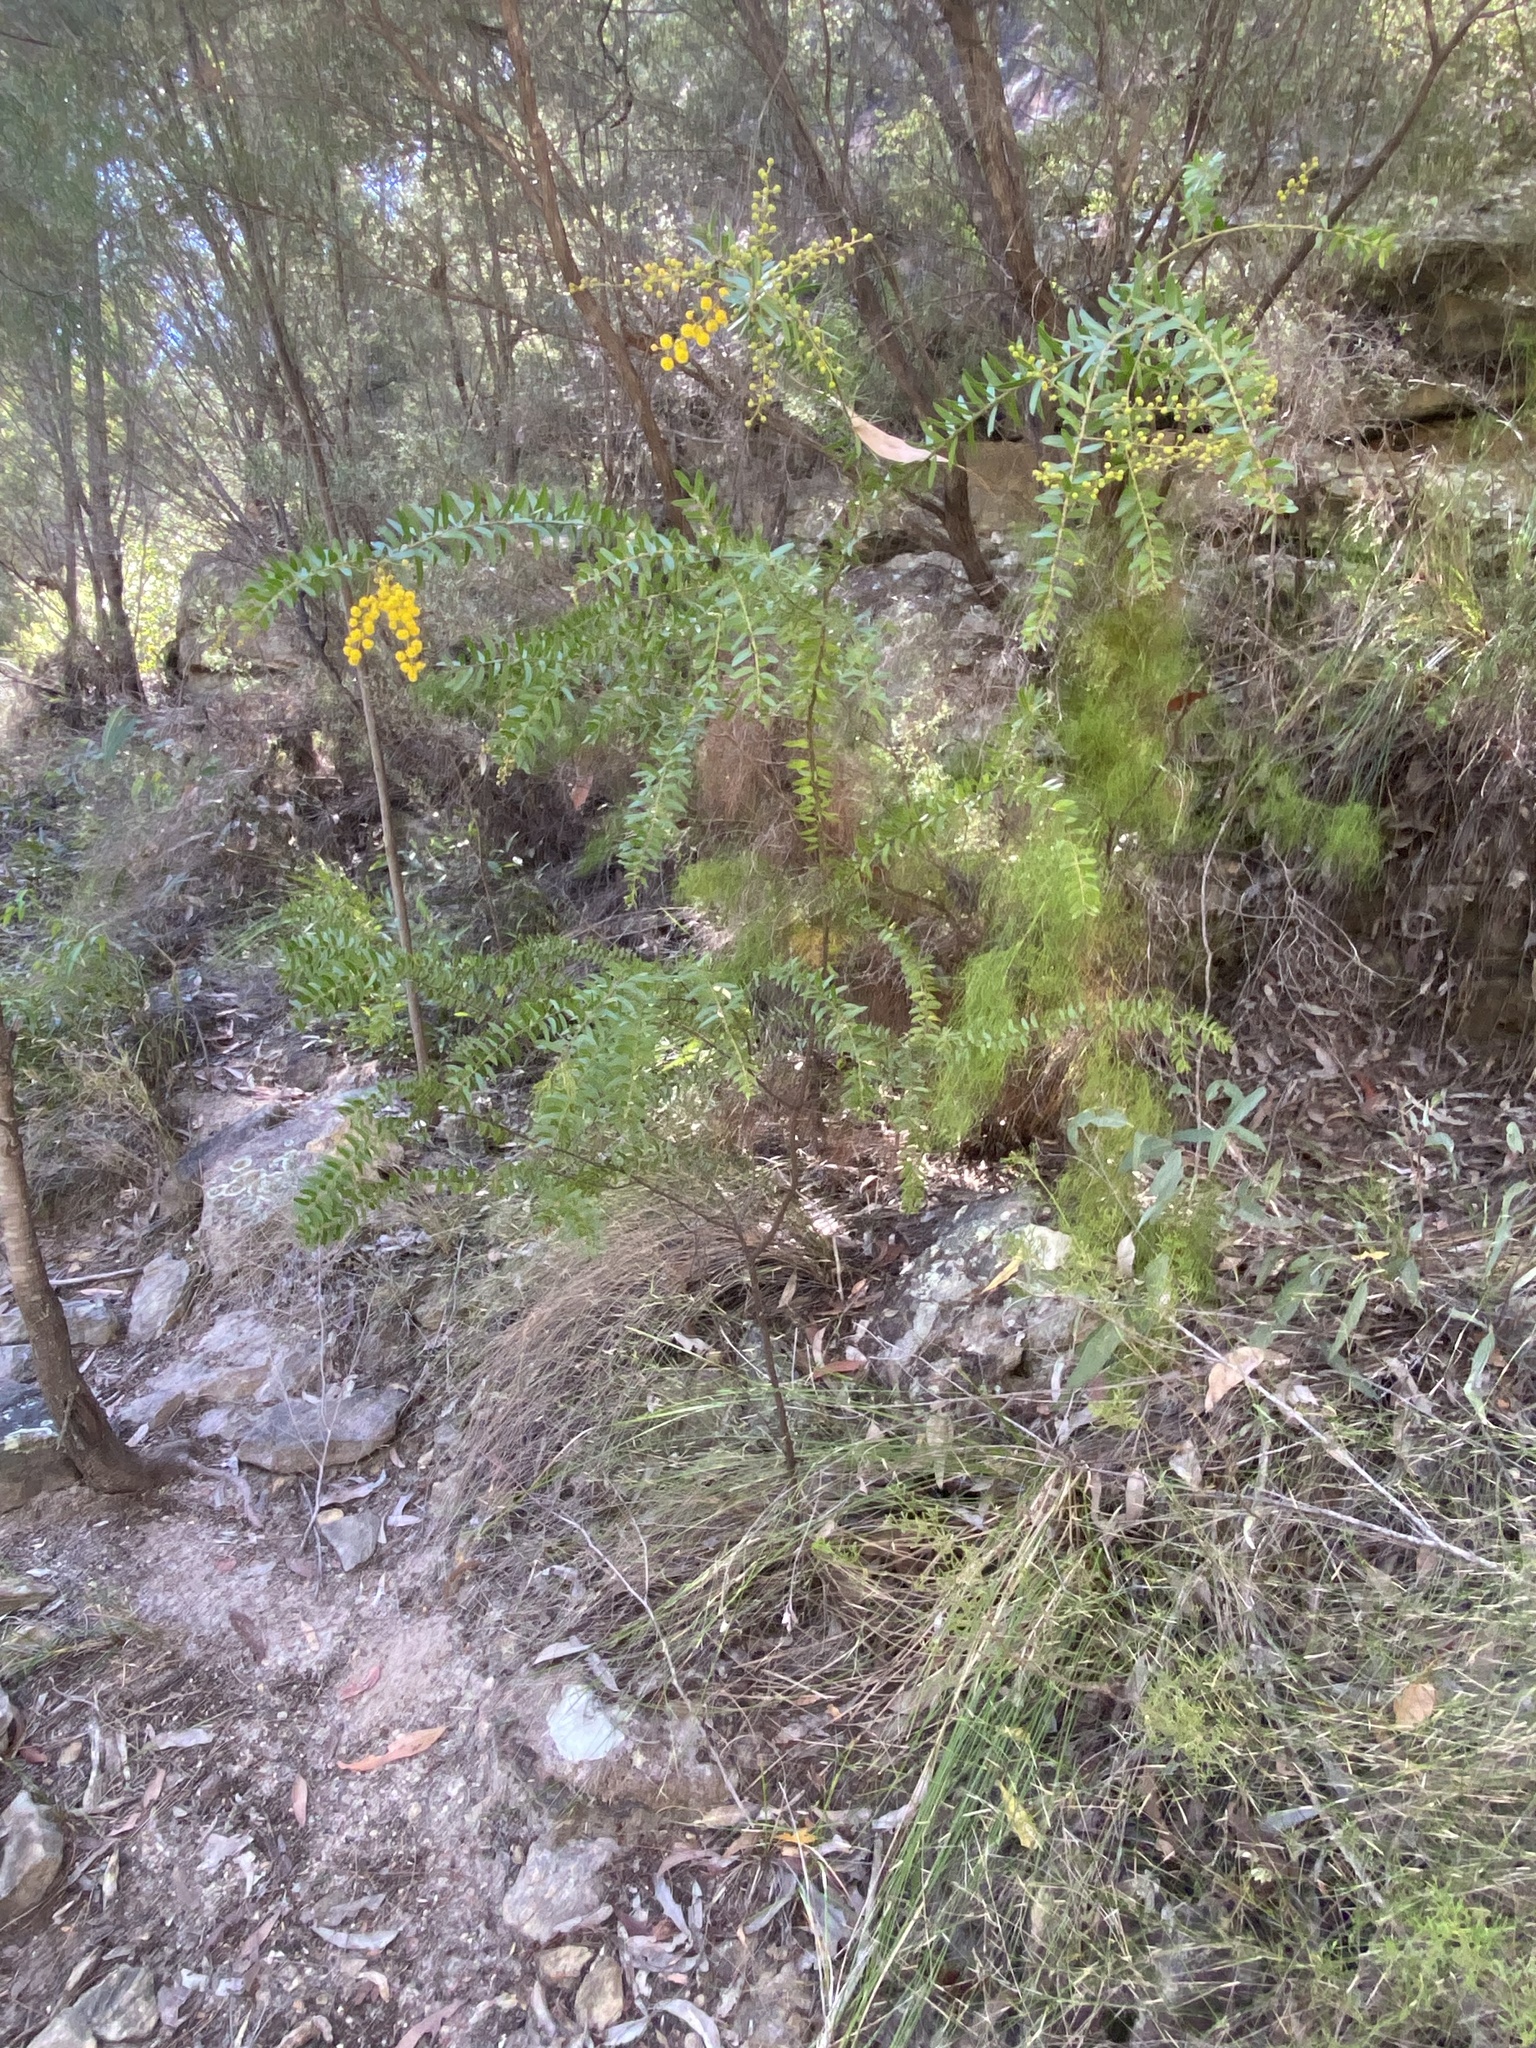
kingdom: Plantae
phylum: Tracheophyta
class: Magnoliopsida
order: Fabales
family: Fabaceae
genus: Acacia
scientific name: Acacia leichhardtii
